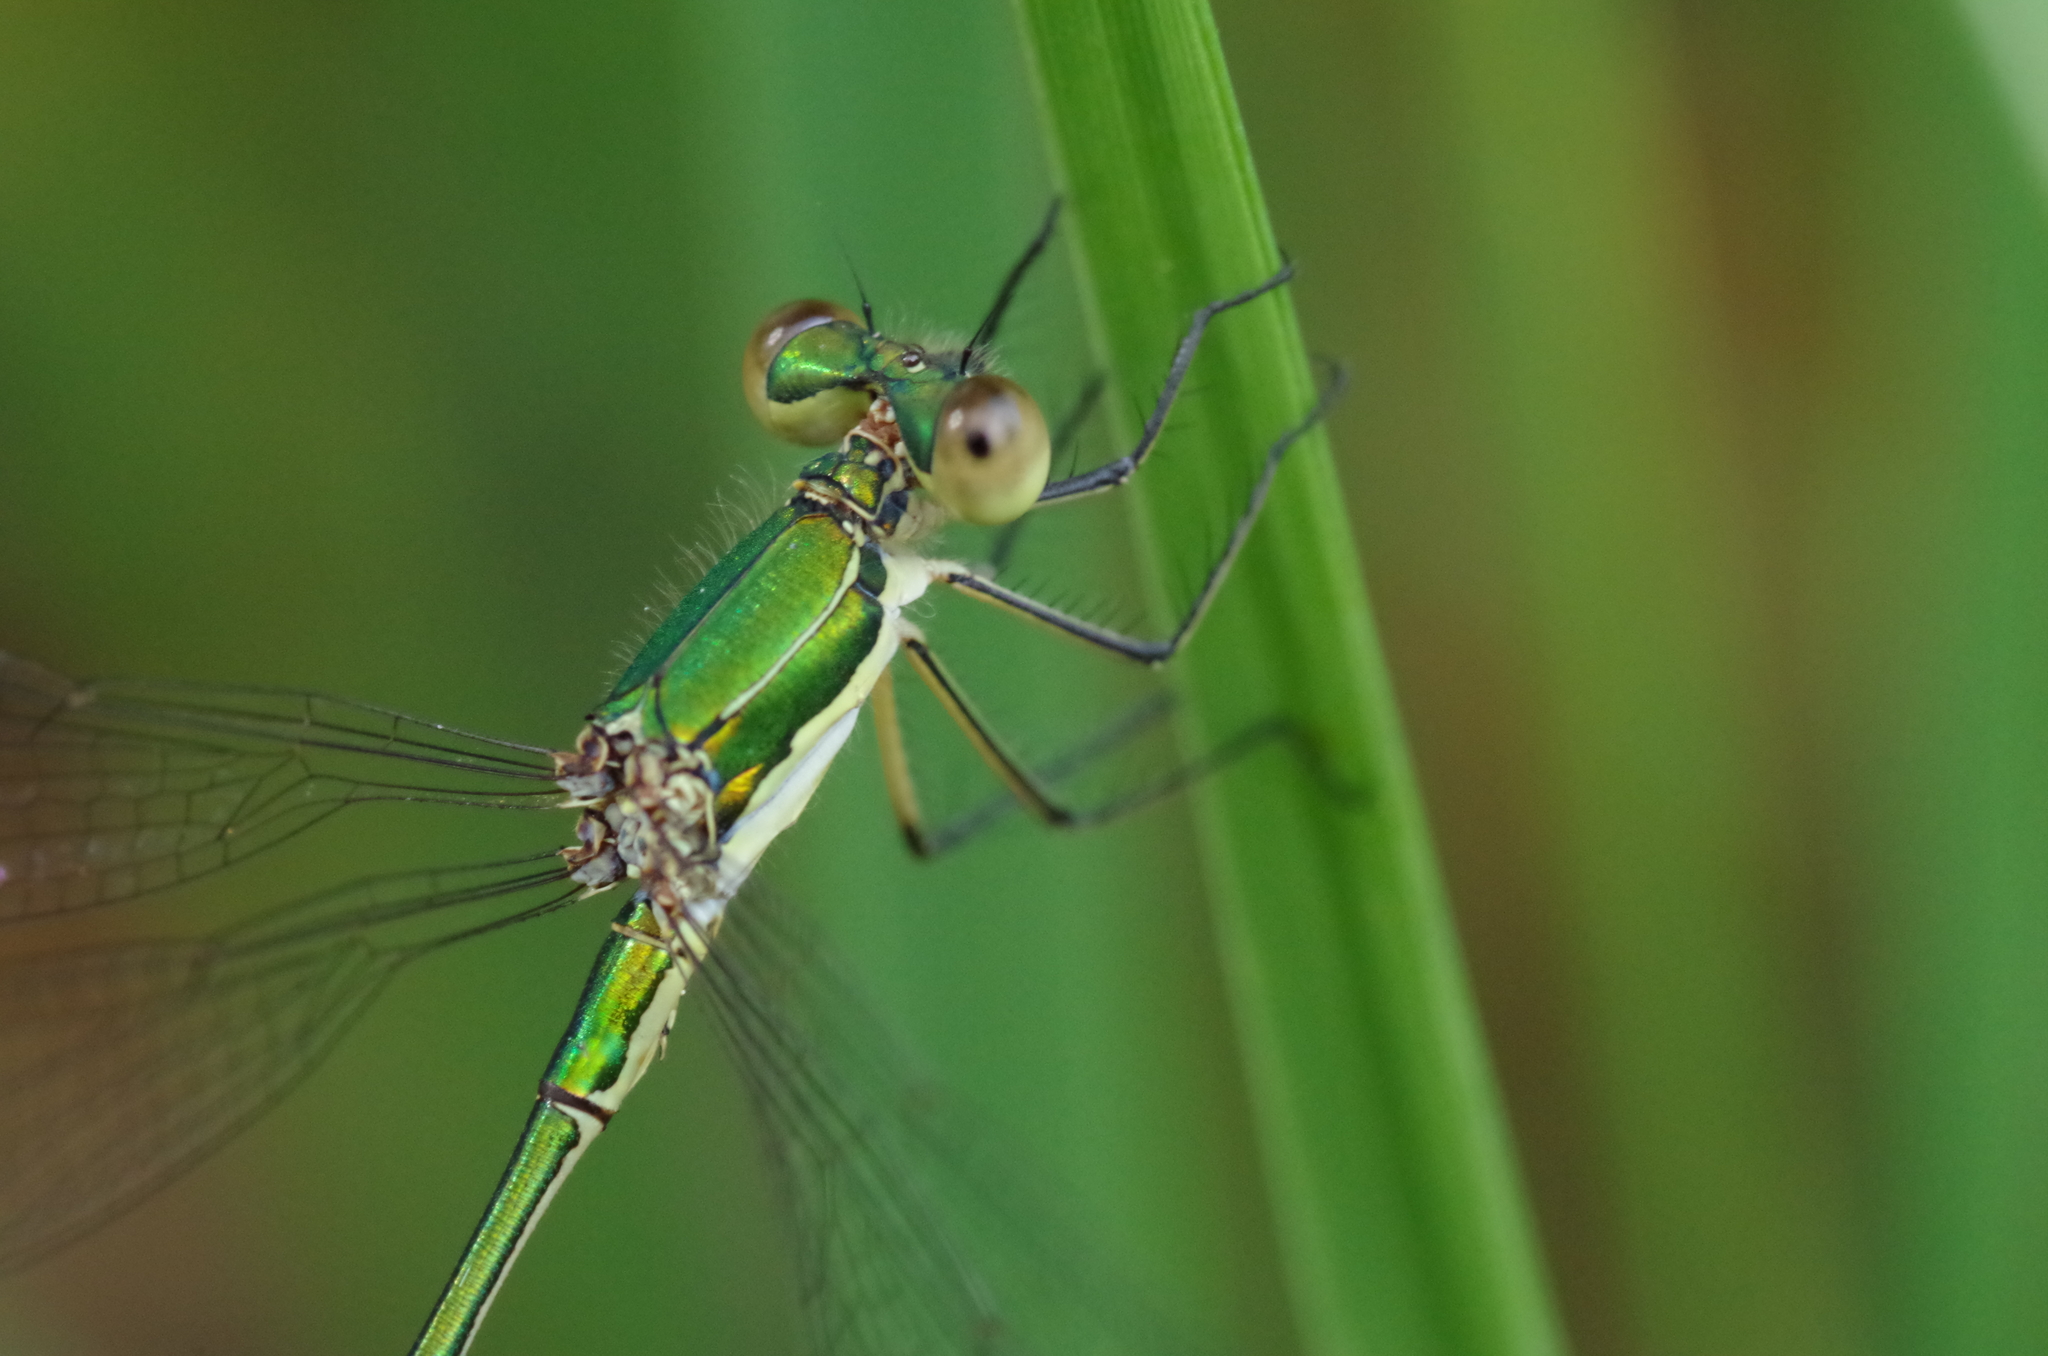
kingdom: Animalia
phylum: Arthropoda
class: Insecta
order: Odonata
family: Lestidae
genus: Lestes
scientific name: Lestes virens
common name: Small emerald spreadwing
